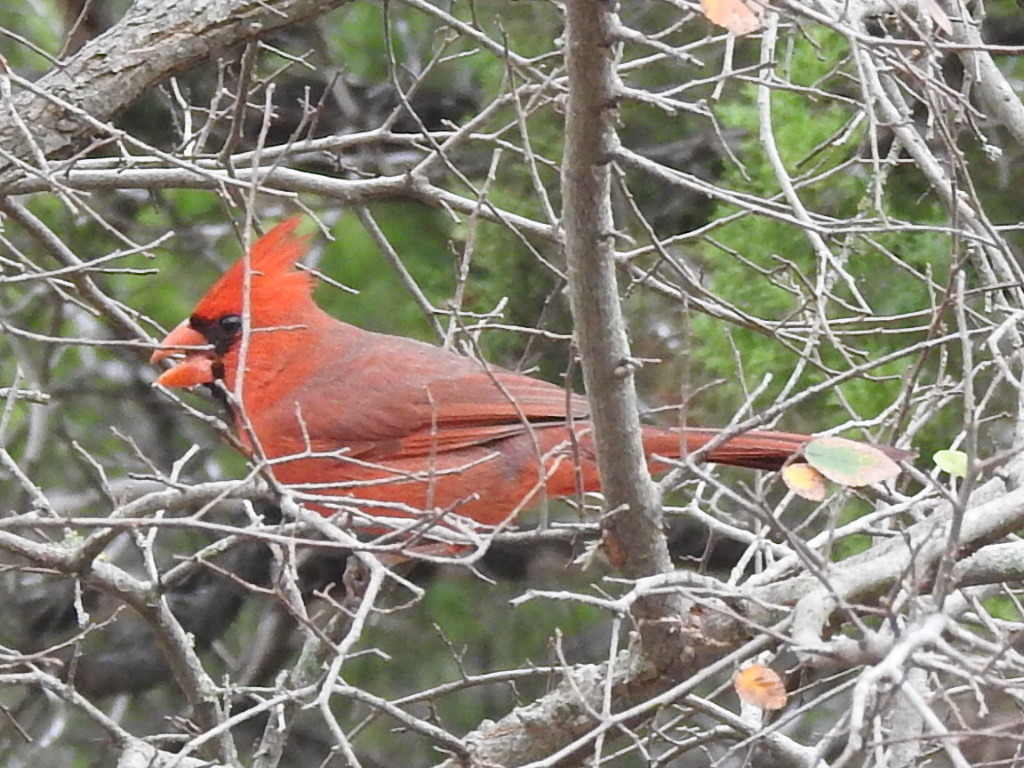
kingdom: Animalia
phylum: Chordata
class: Aves
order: Passeriformes
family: Cardinalidae
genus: Cardinalis
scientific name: Cardinalis cardinalis
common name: Northern cardinal
